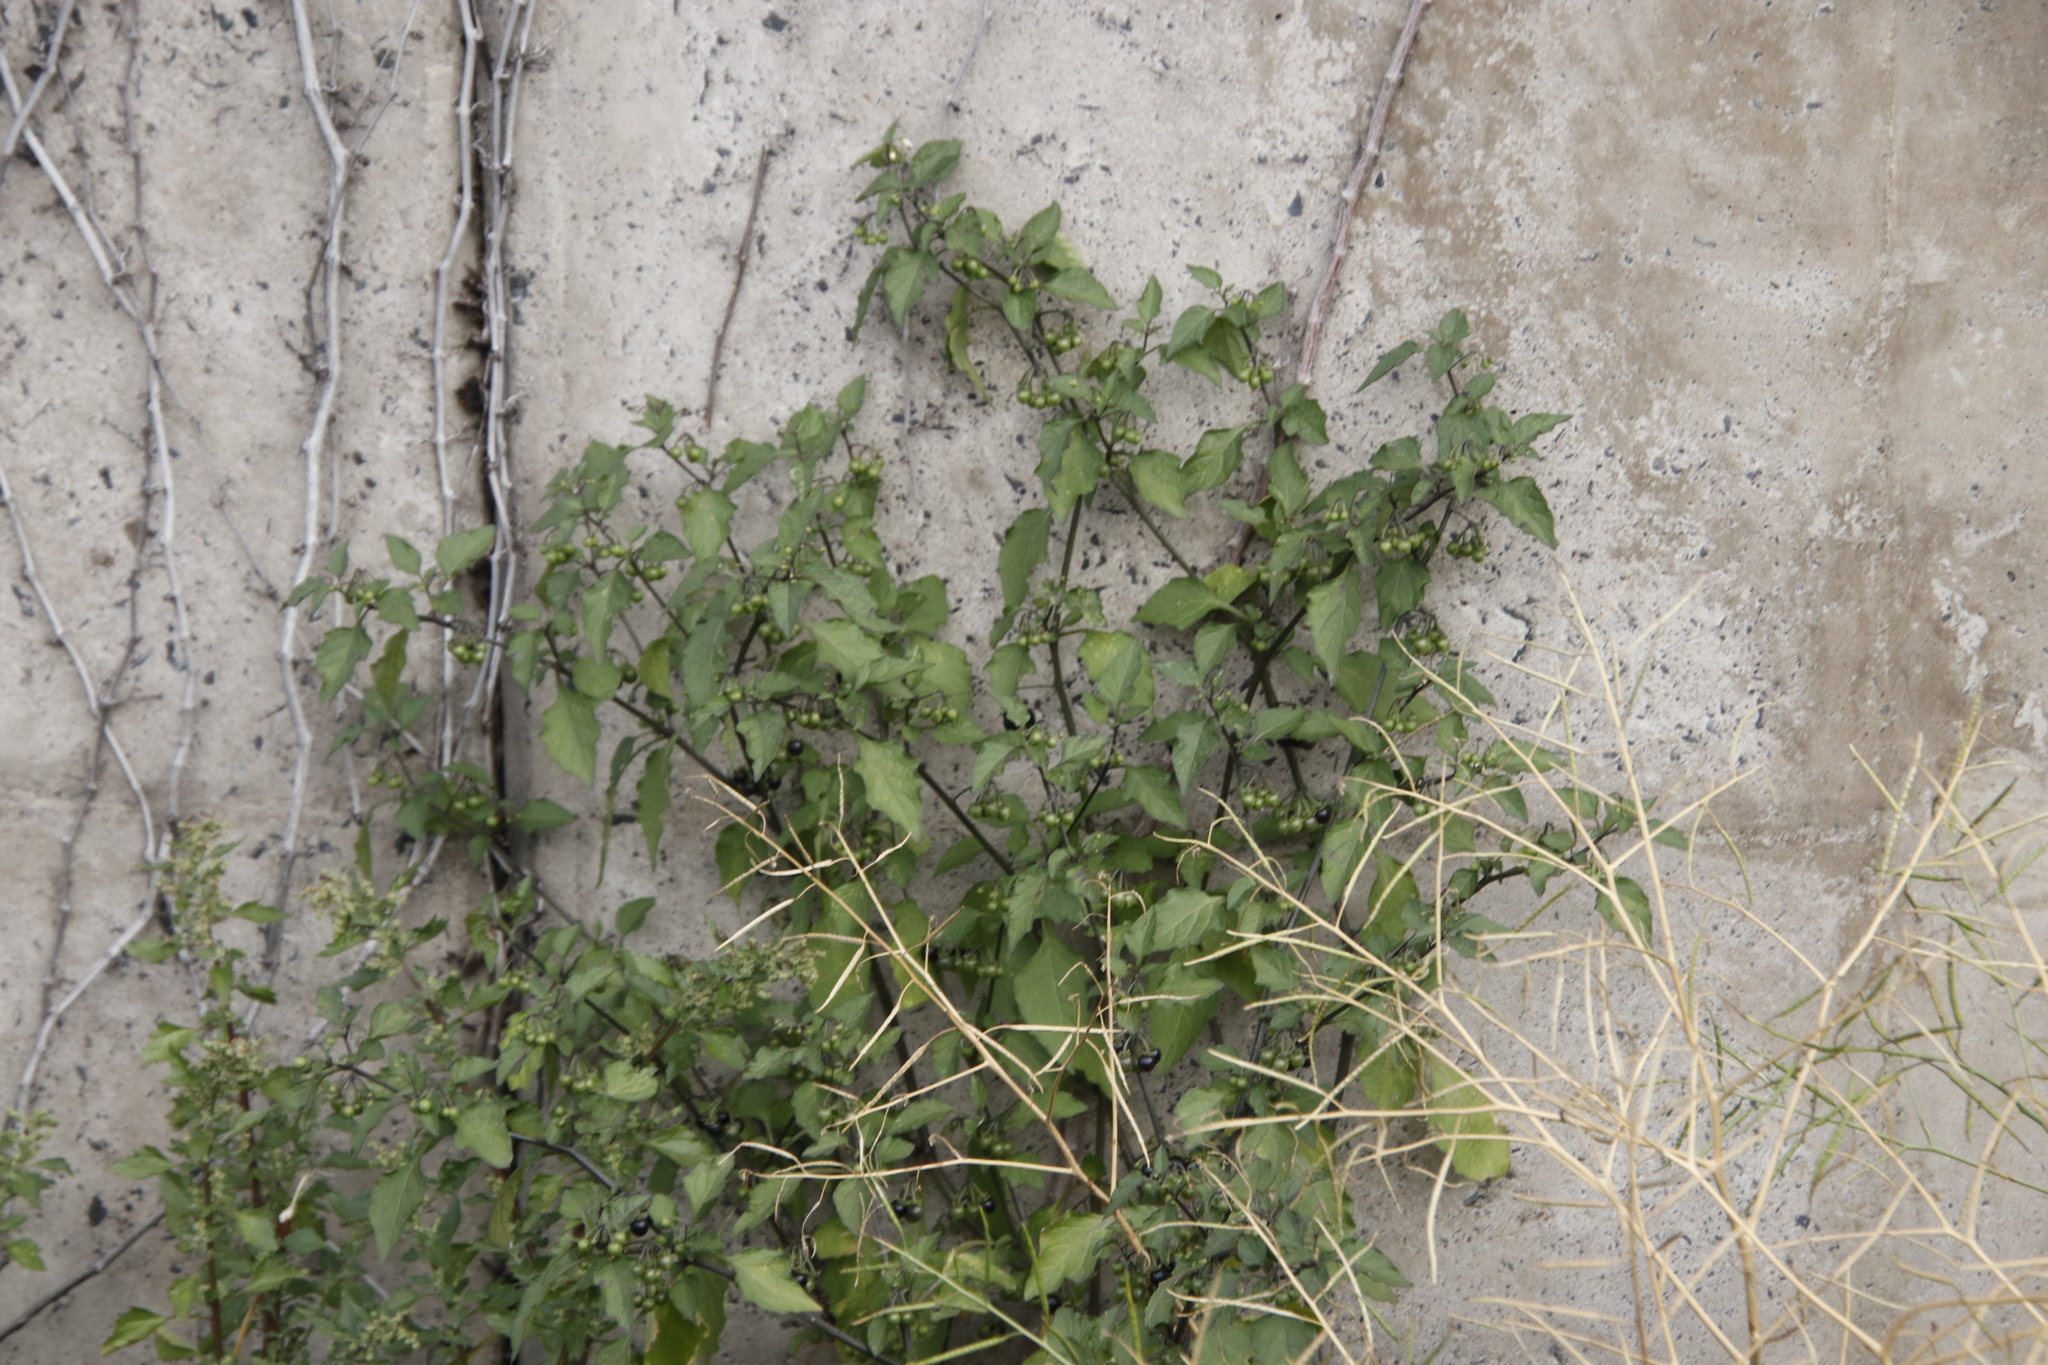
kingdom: Plantae
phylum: Tracheophyta
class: Magnoliopsida
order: Solanales
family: Solanaceae
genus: Solanum
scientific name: Solanum nigrum
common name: Black nightshade
